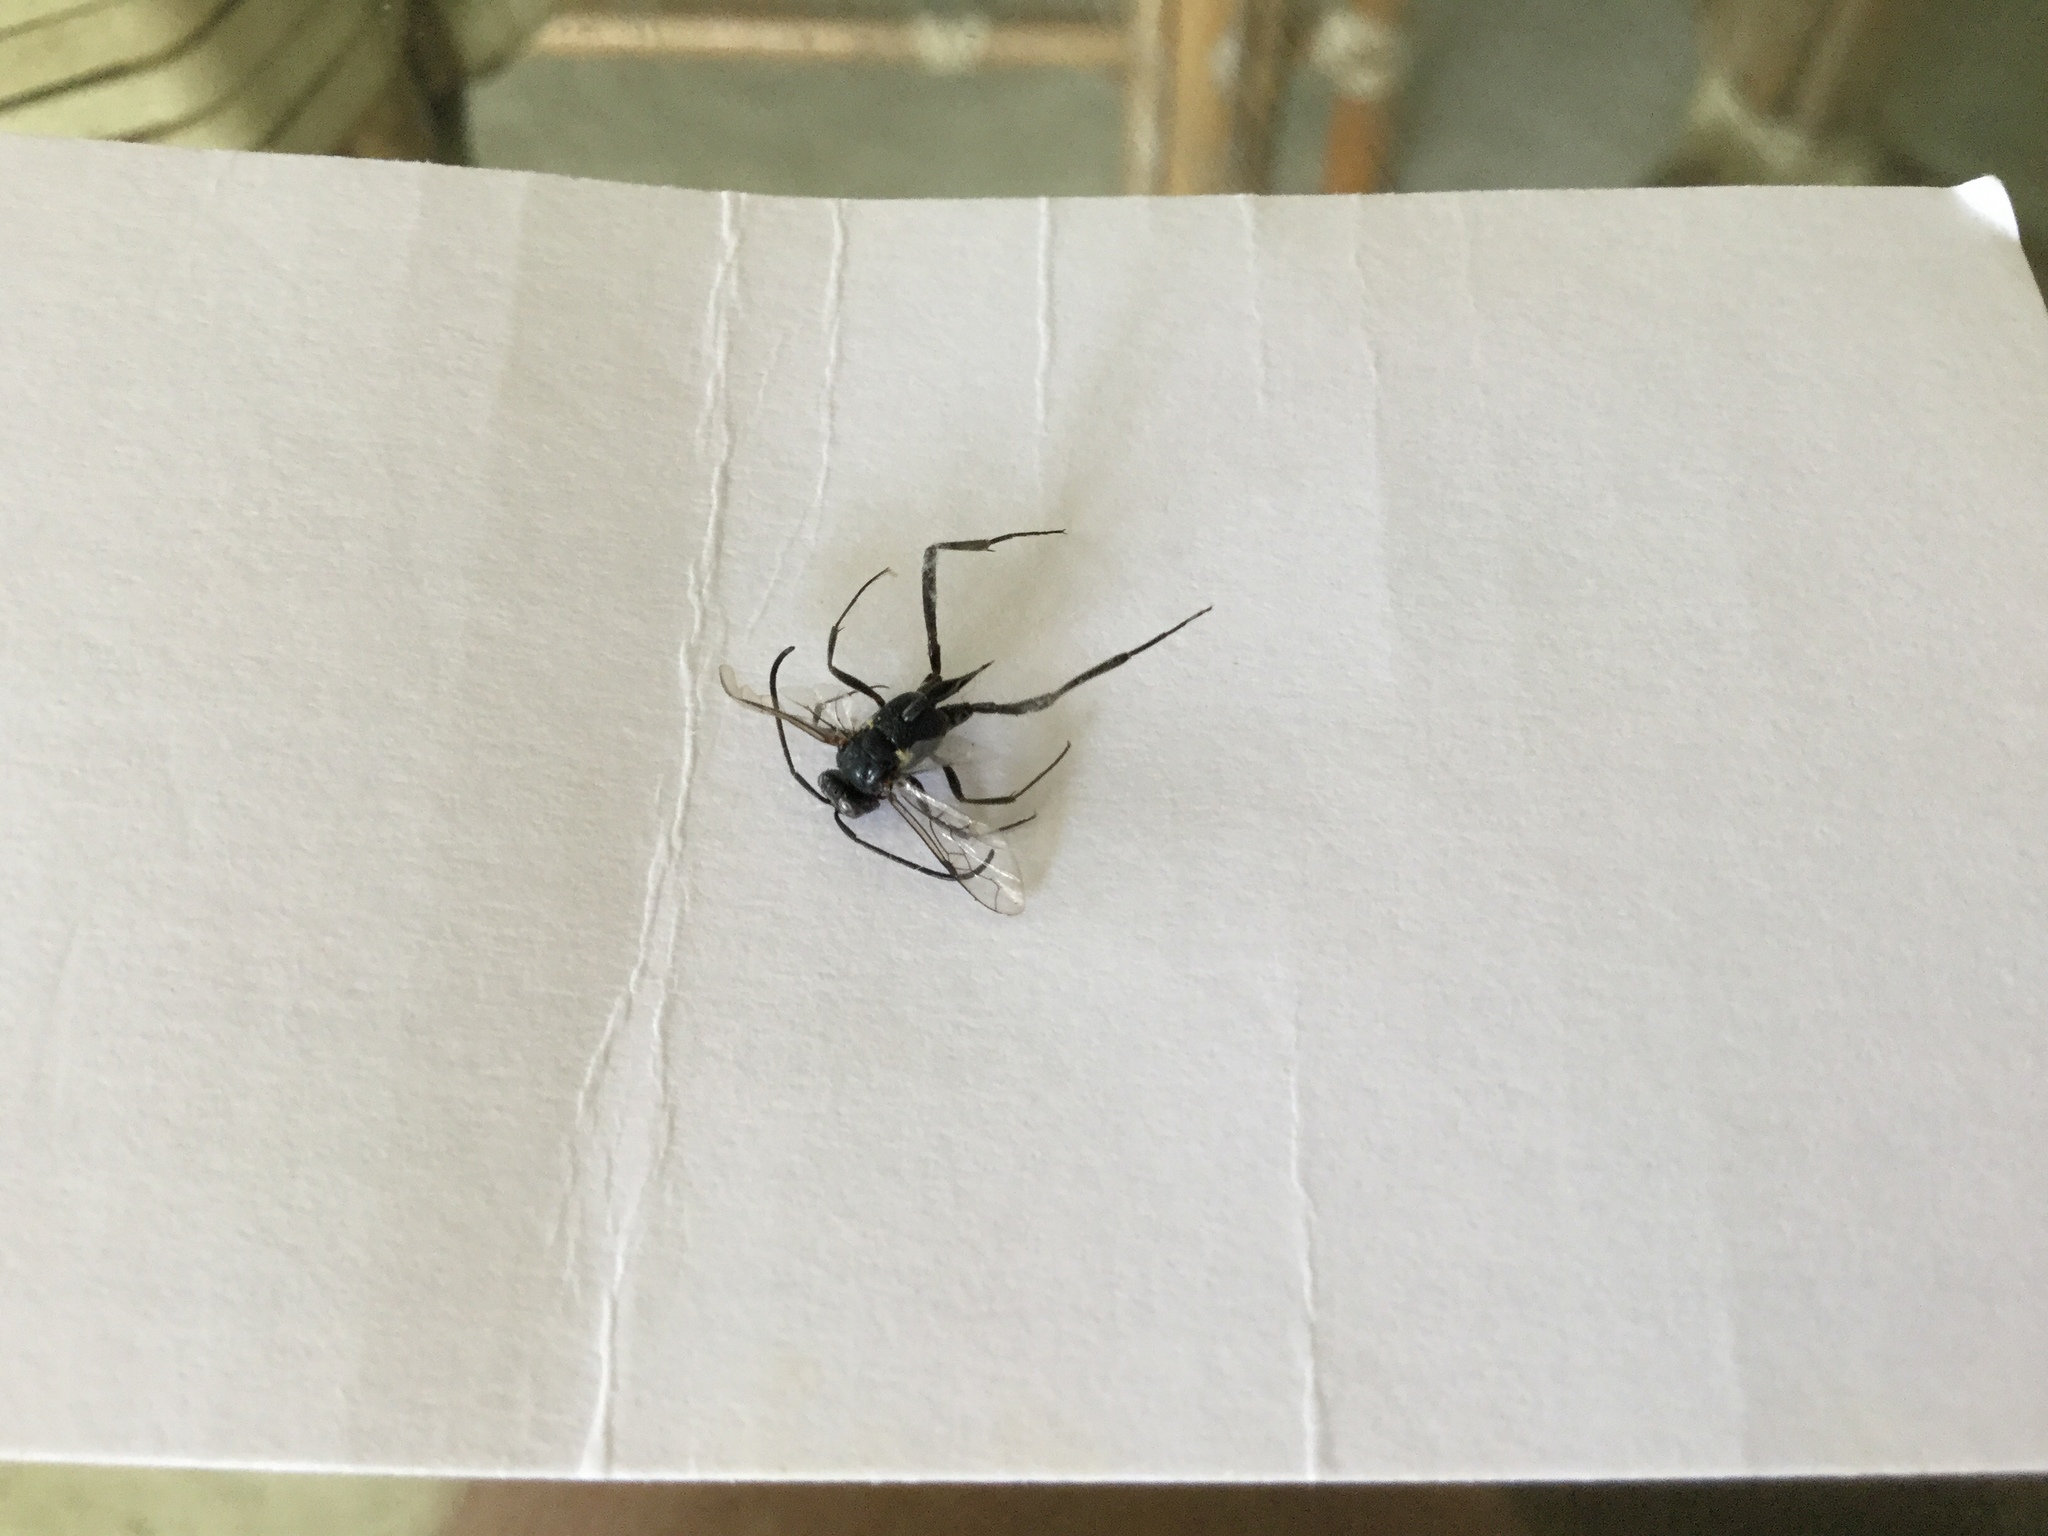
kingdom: Animalia
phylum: Arthropoda
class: Insecta
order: Hymenoptera
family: Evaniidae
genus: Evania
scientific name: Evania appendigaster
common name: Ensign wasp
